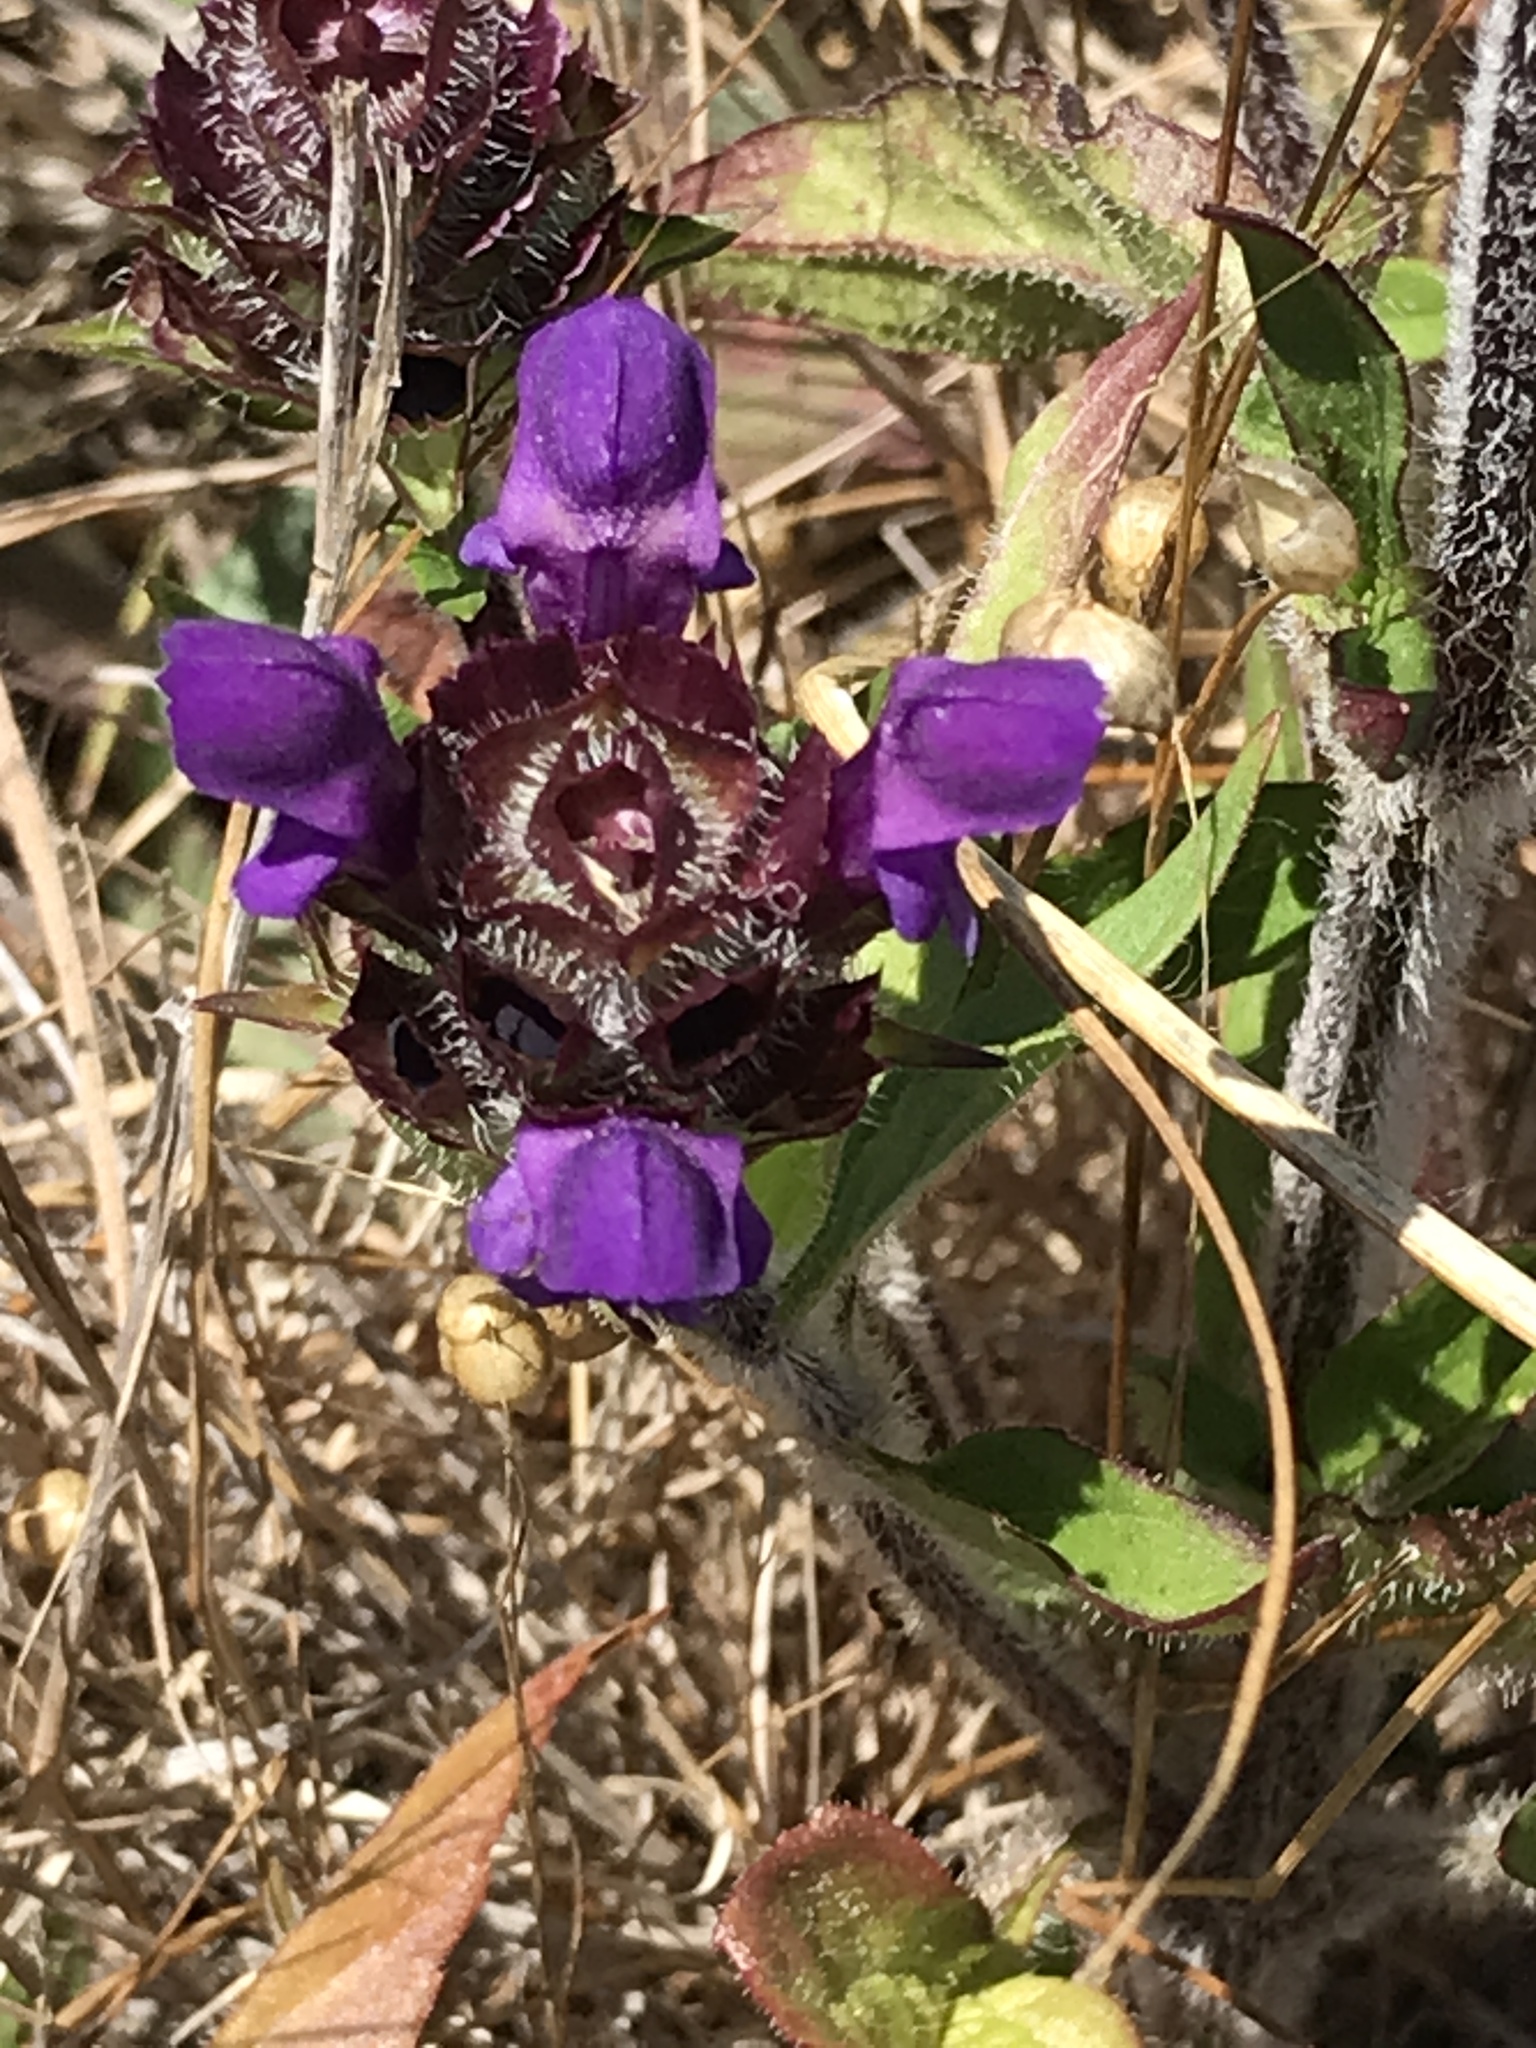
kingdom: Plantae
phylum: Tracheophyta
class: Magnoliopsida
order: Lamiales
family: Lamiaceae
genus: Prunella
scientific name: Prunella vulgaris
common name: Heal-all
